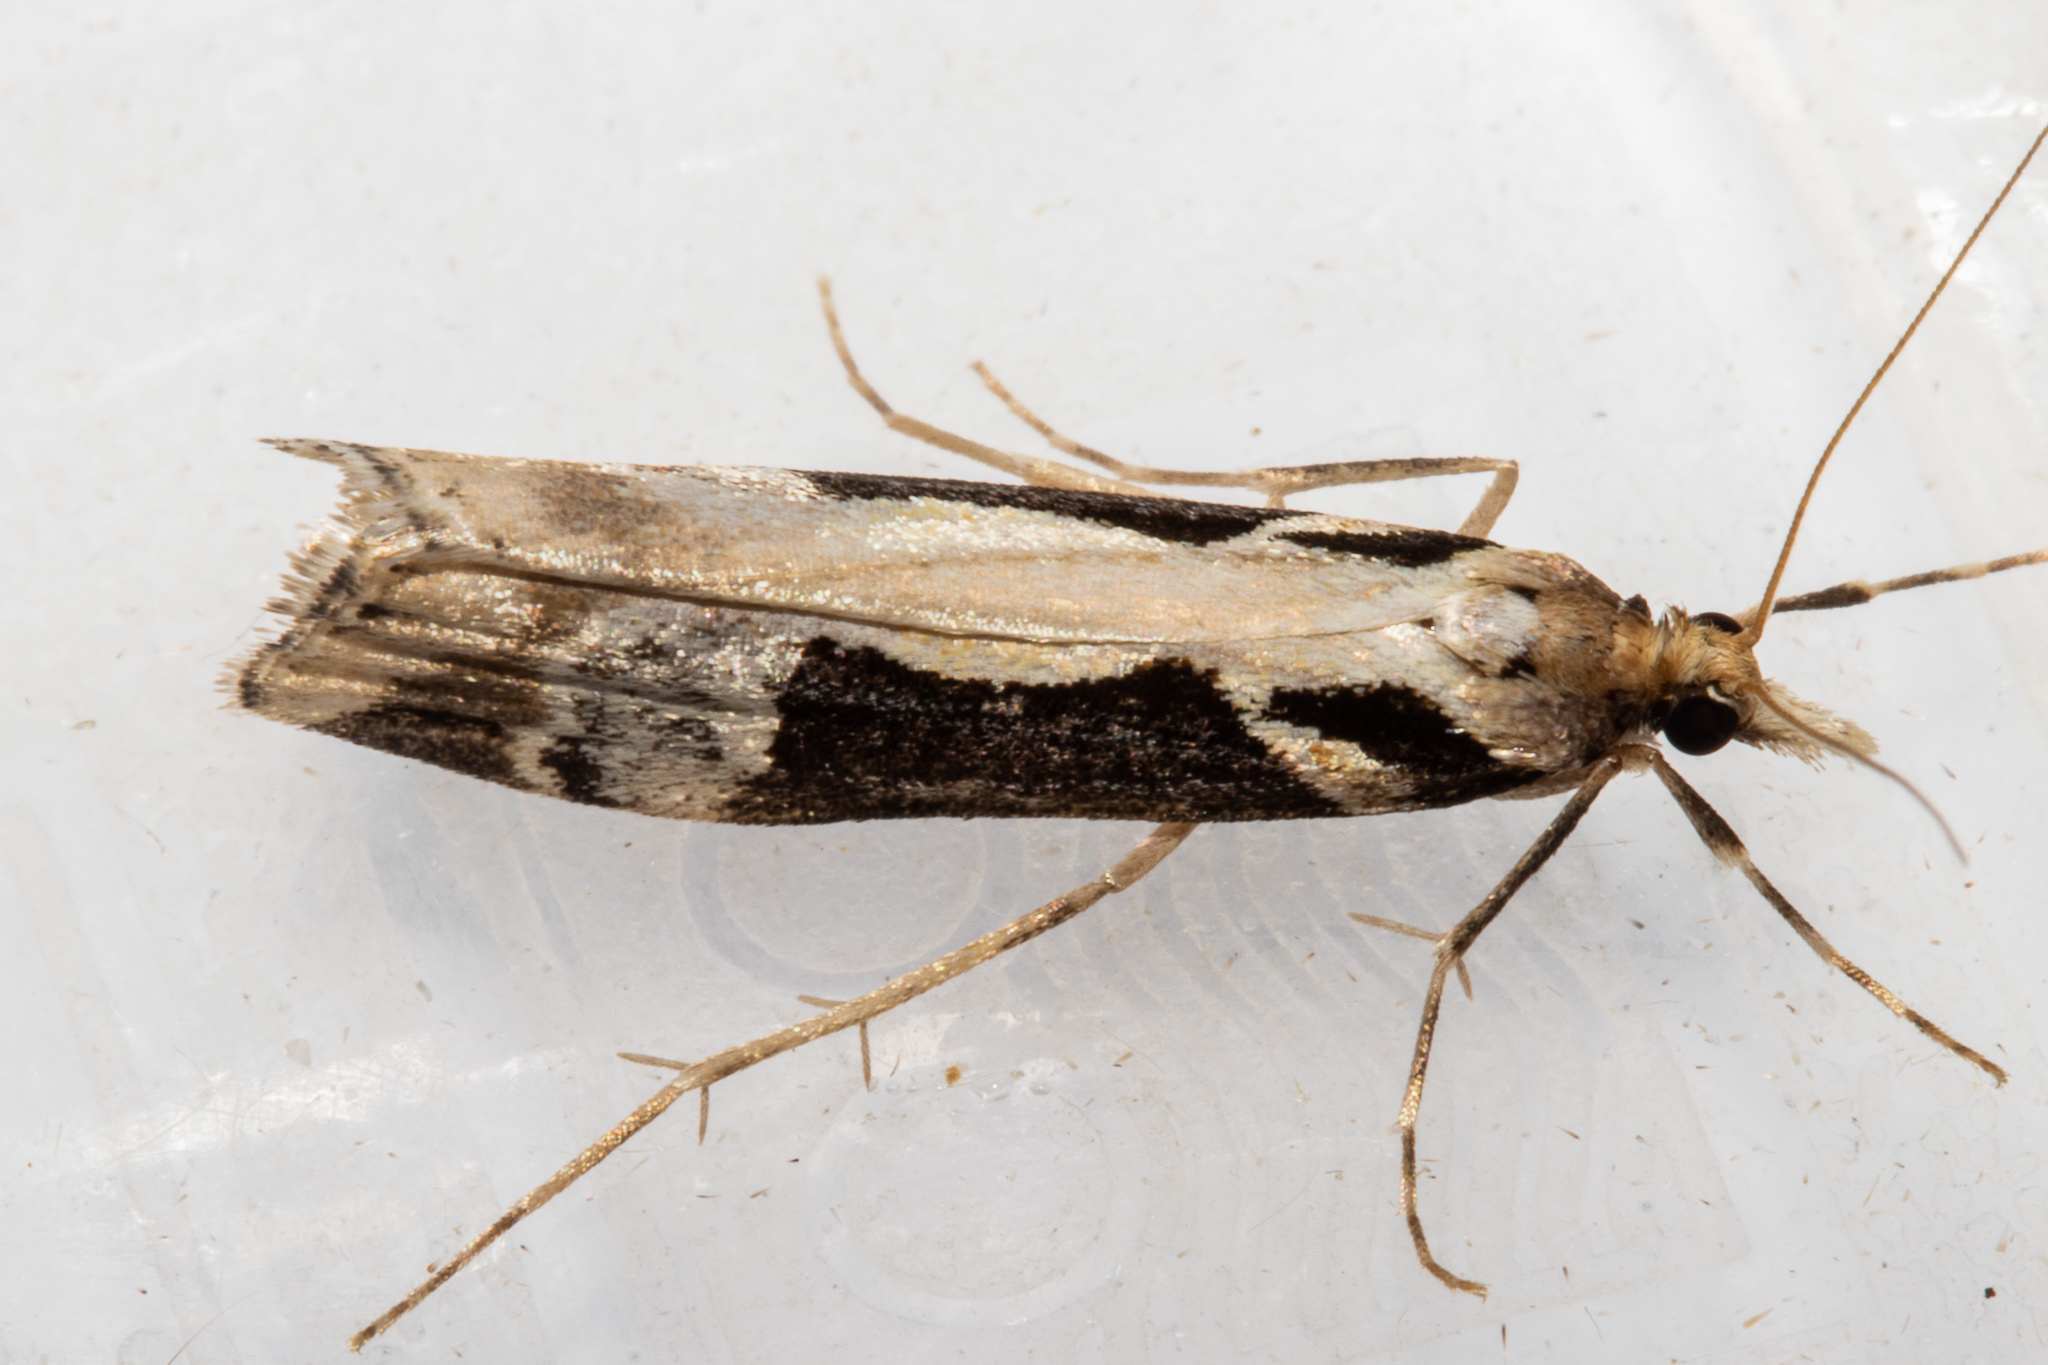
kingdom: Animalia
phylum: Arthropoda
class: Insecta
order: Lepidoptera
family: Crambidae
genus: Scoparia
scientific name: Scoparia trapezophora
